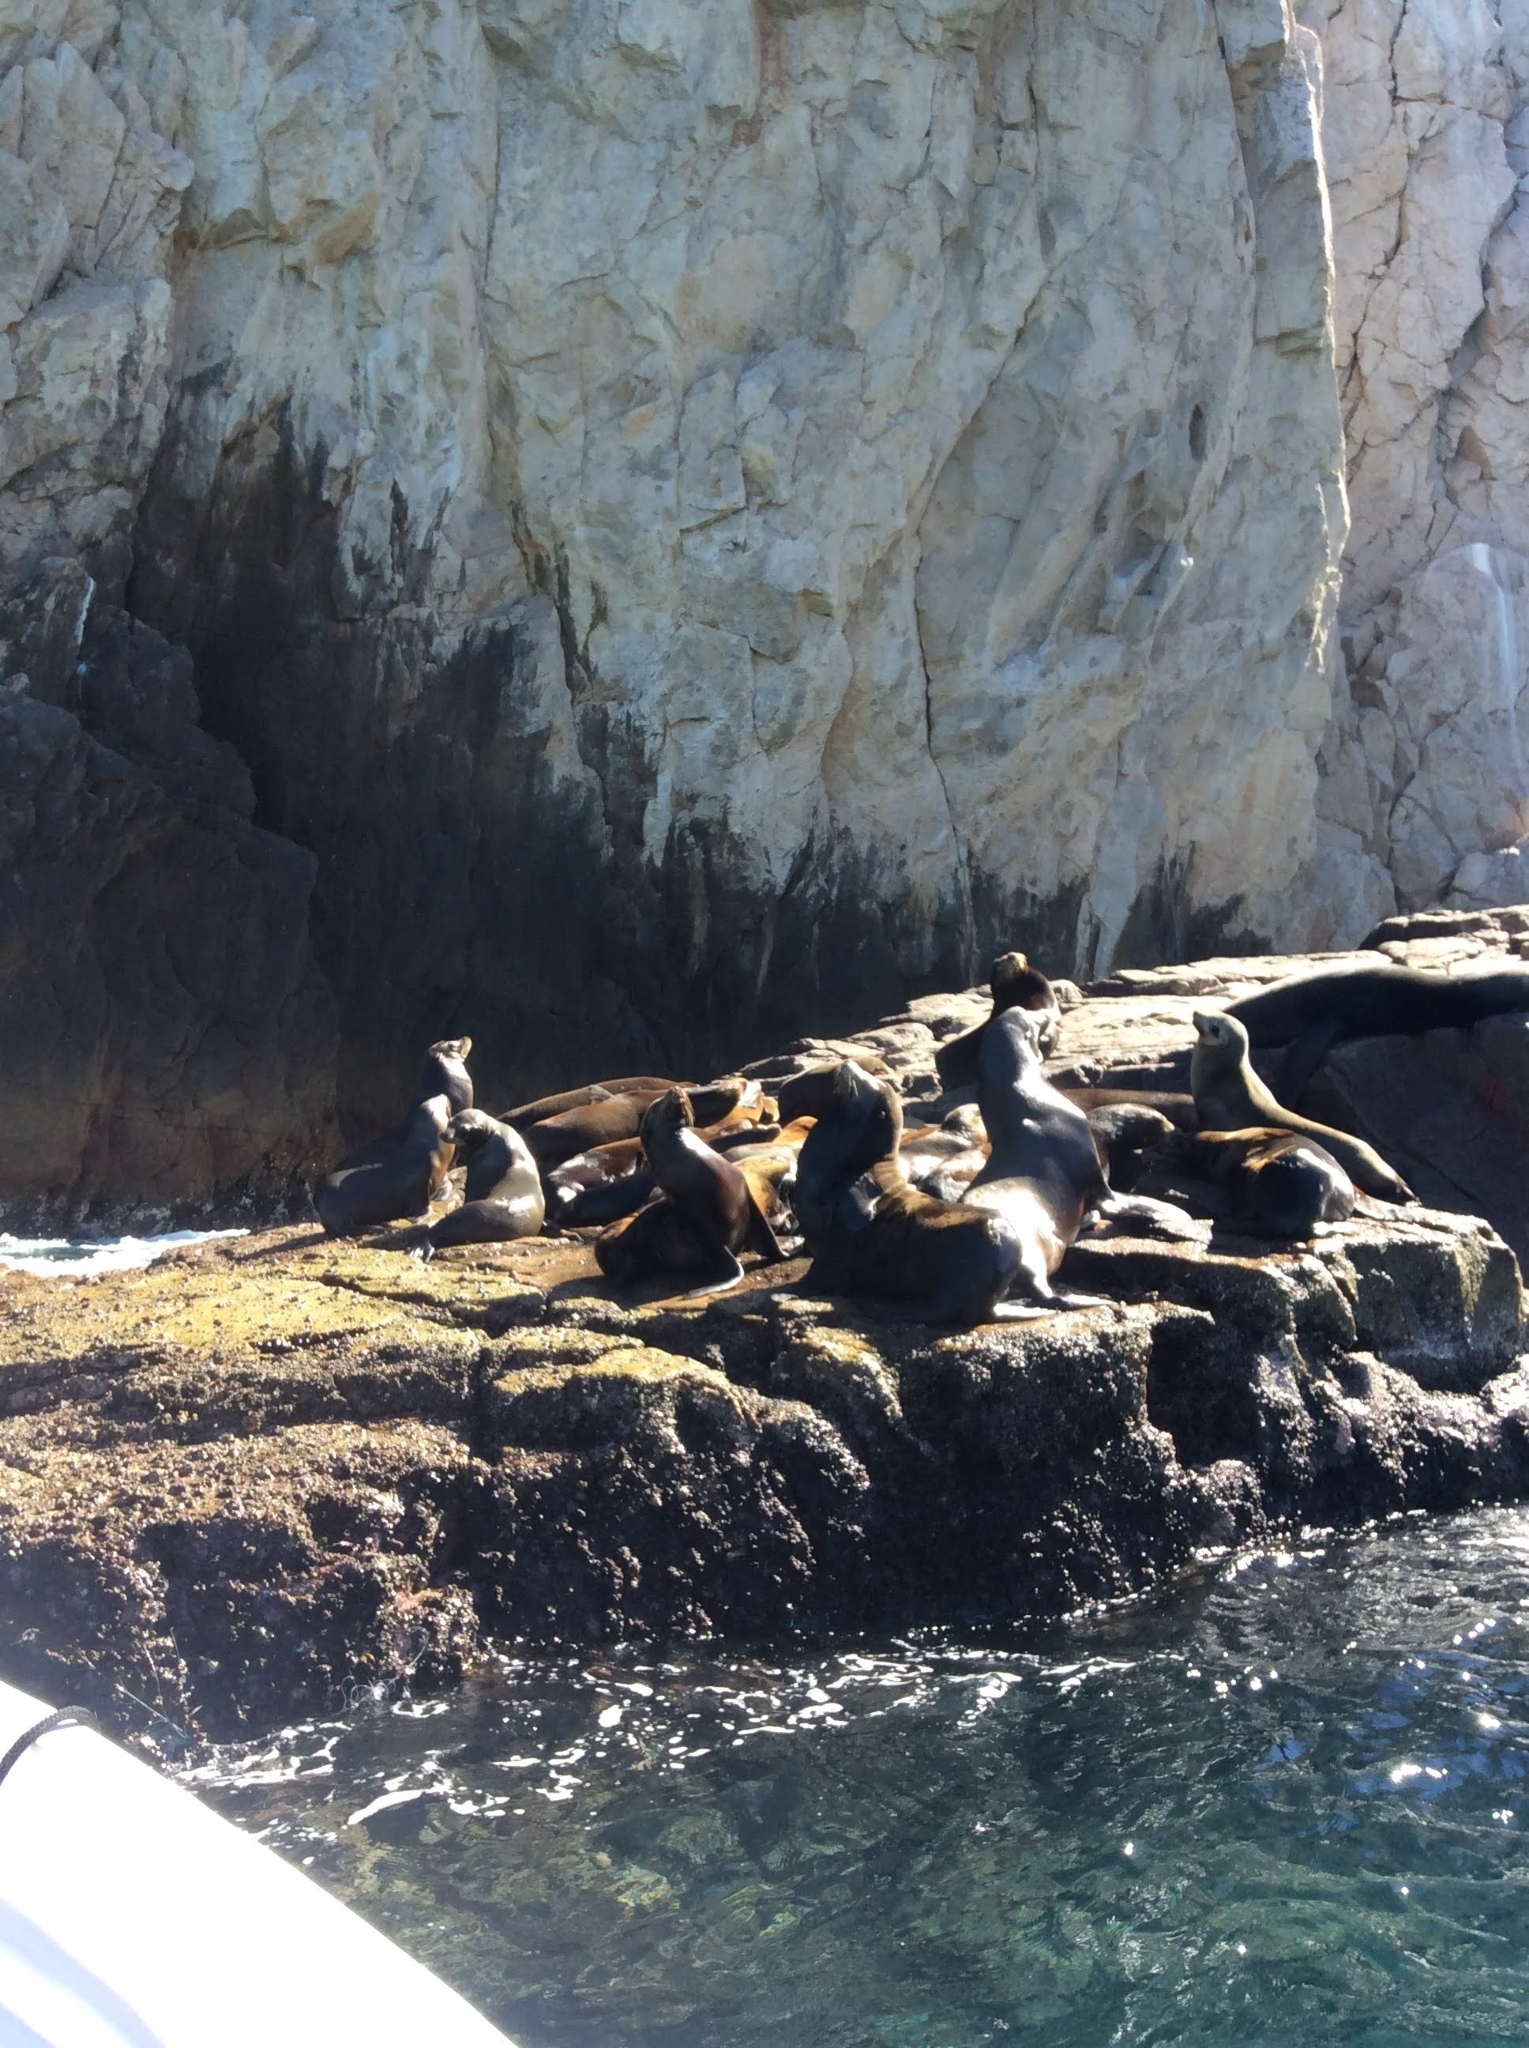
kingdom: Animalia
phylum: Chordata
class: Mammalia
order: Carnivora
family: Otariidae
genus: Zalophus
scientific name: Zalophus californianus
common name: California sea lion
